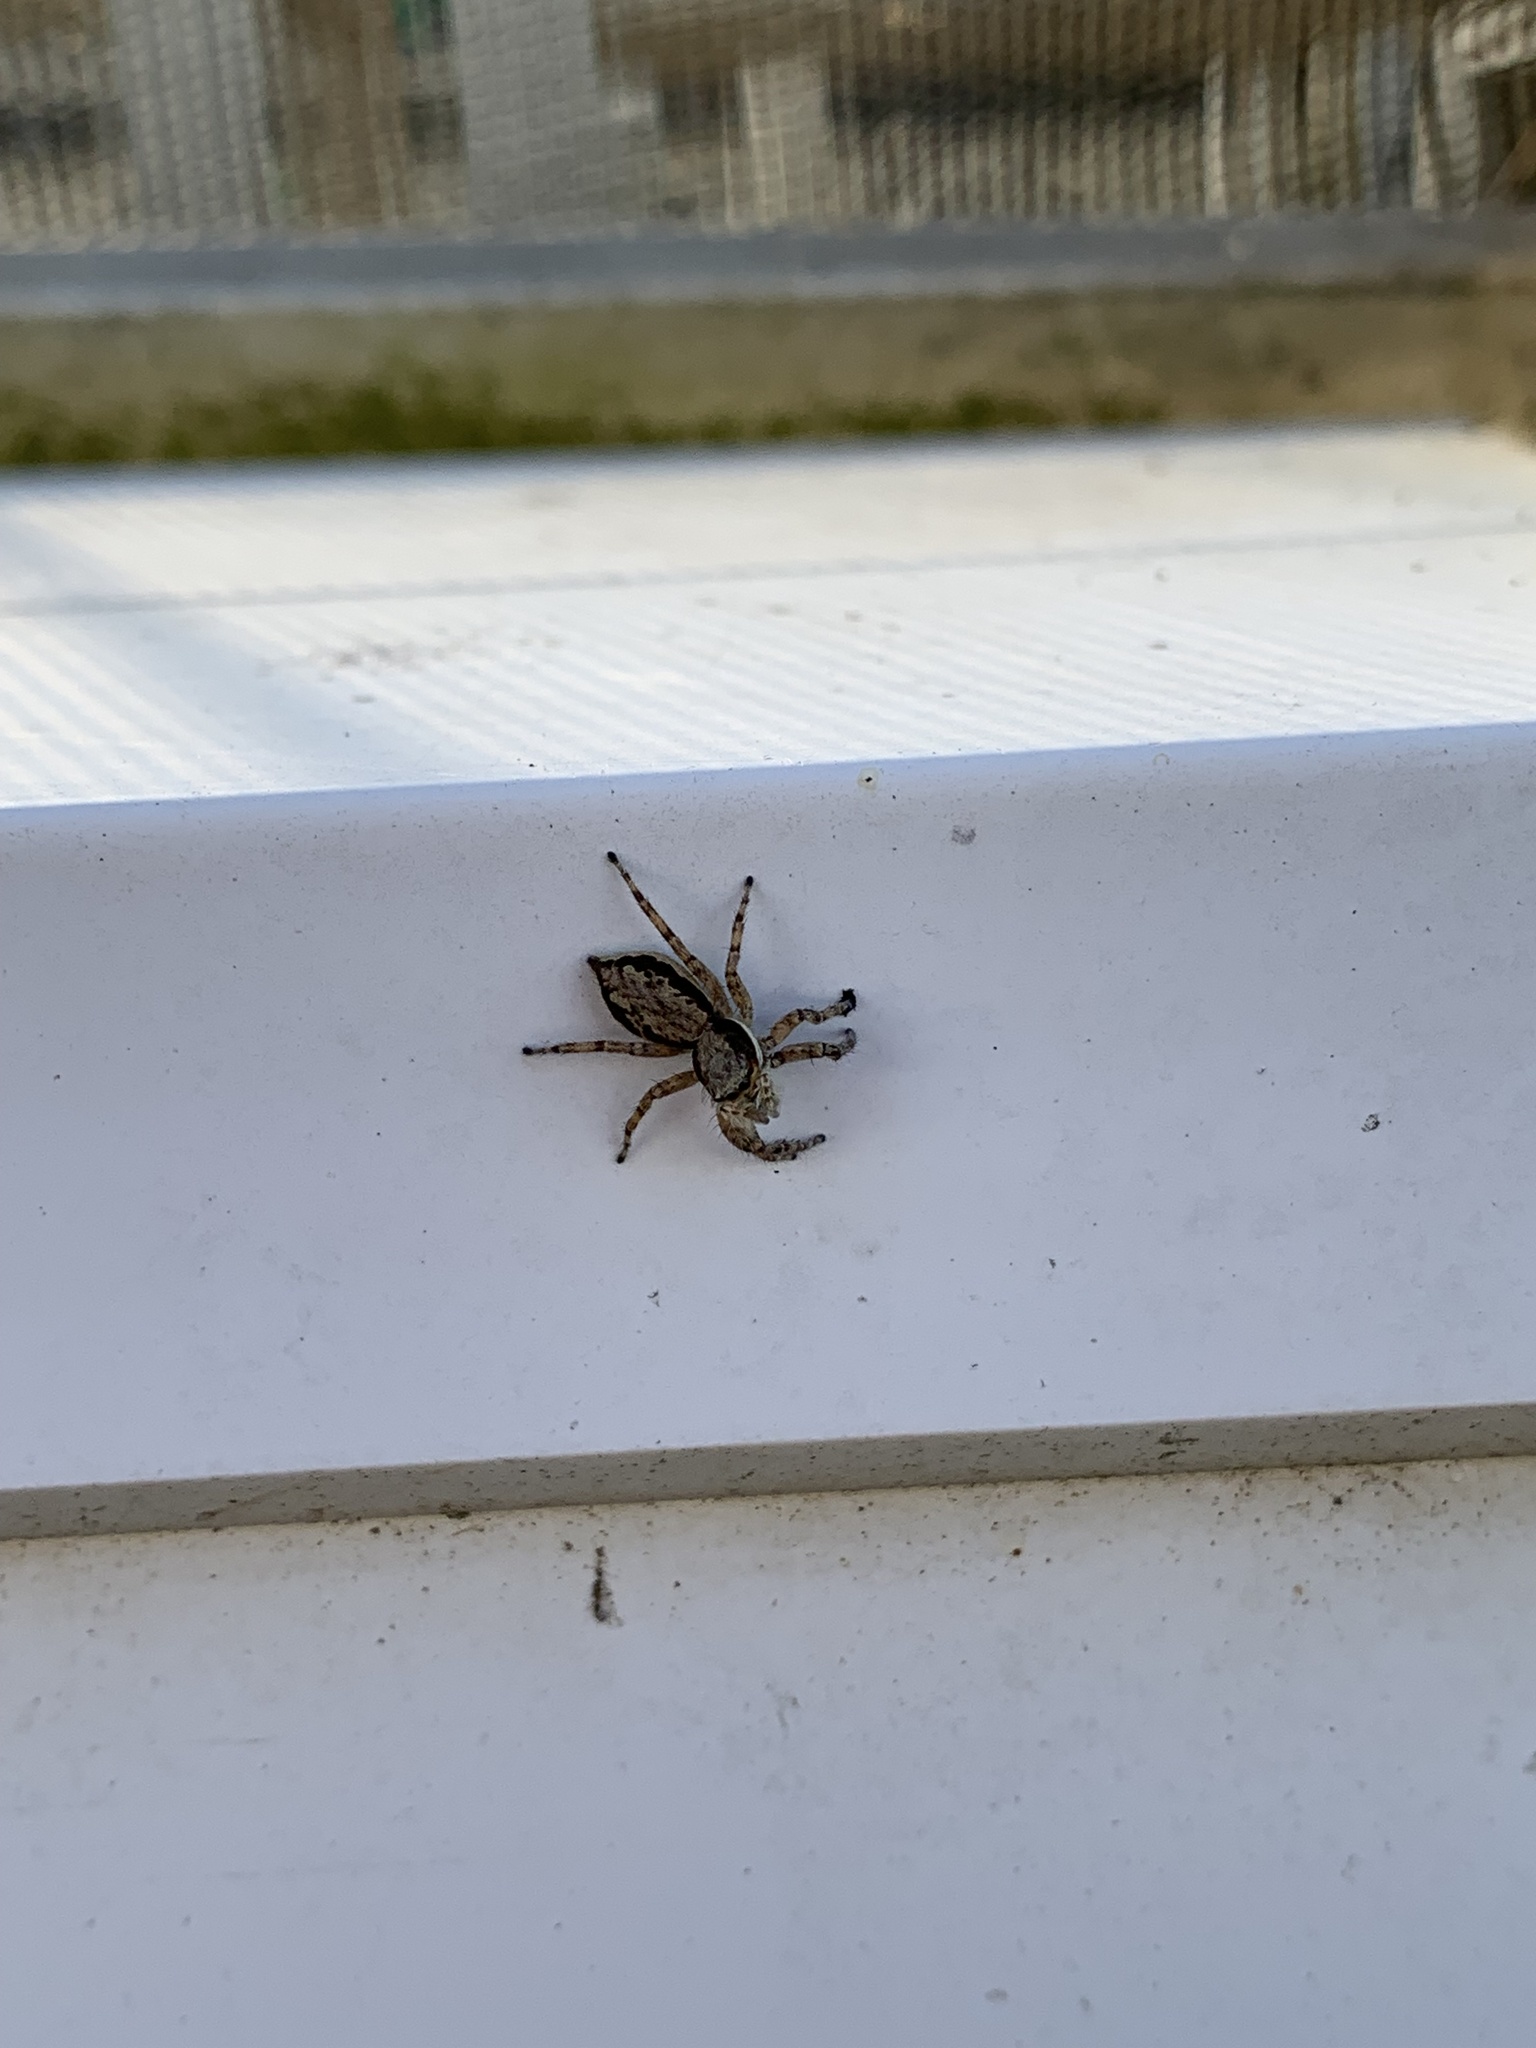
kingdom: Animalia
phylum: Arthropoda
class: Arachnida
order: Araneae
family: Salticidae
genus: Menemerus
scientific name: Menemerus bivittatus
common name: Gray wall jumper
